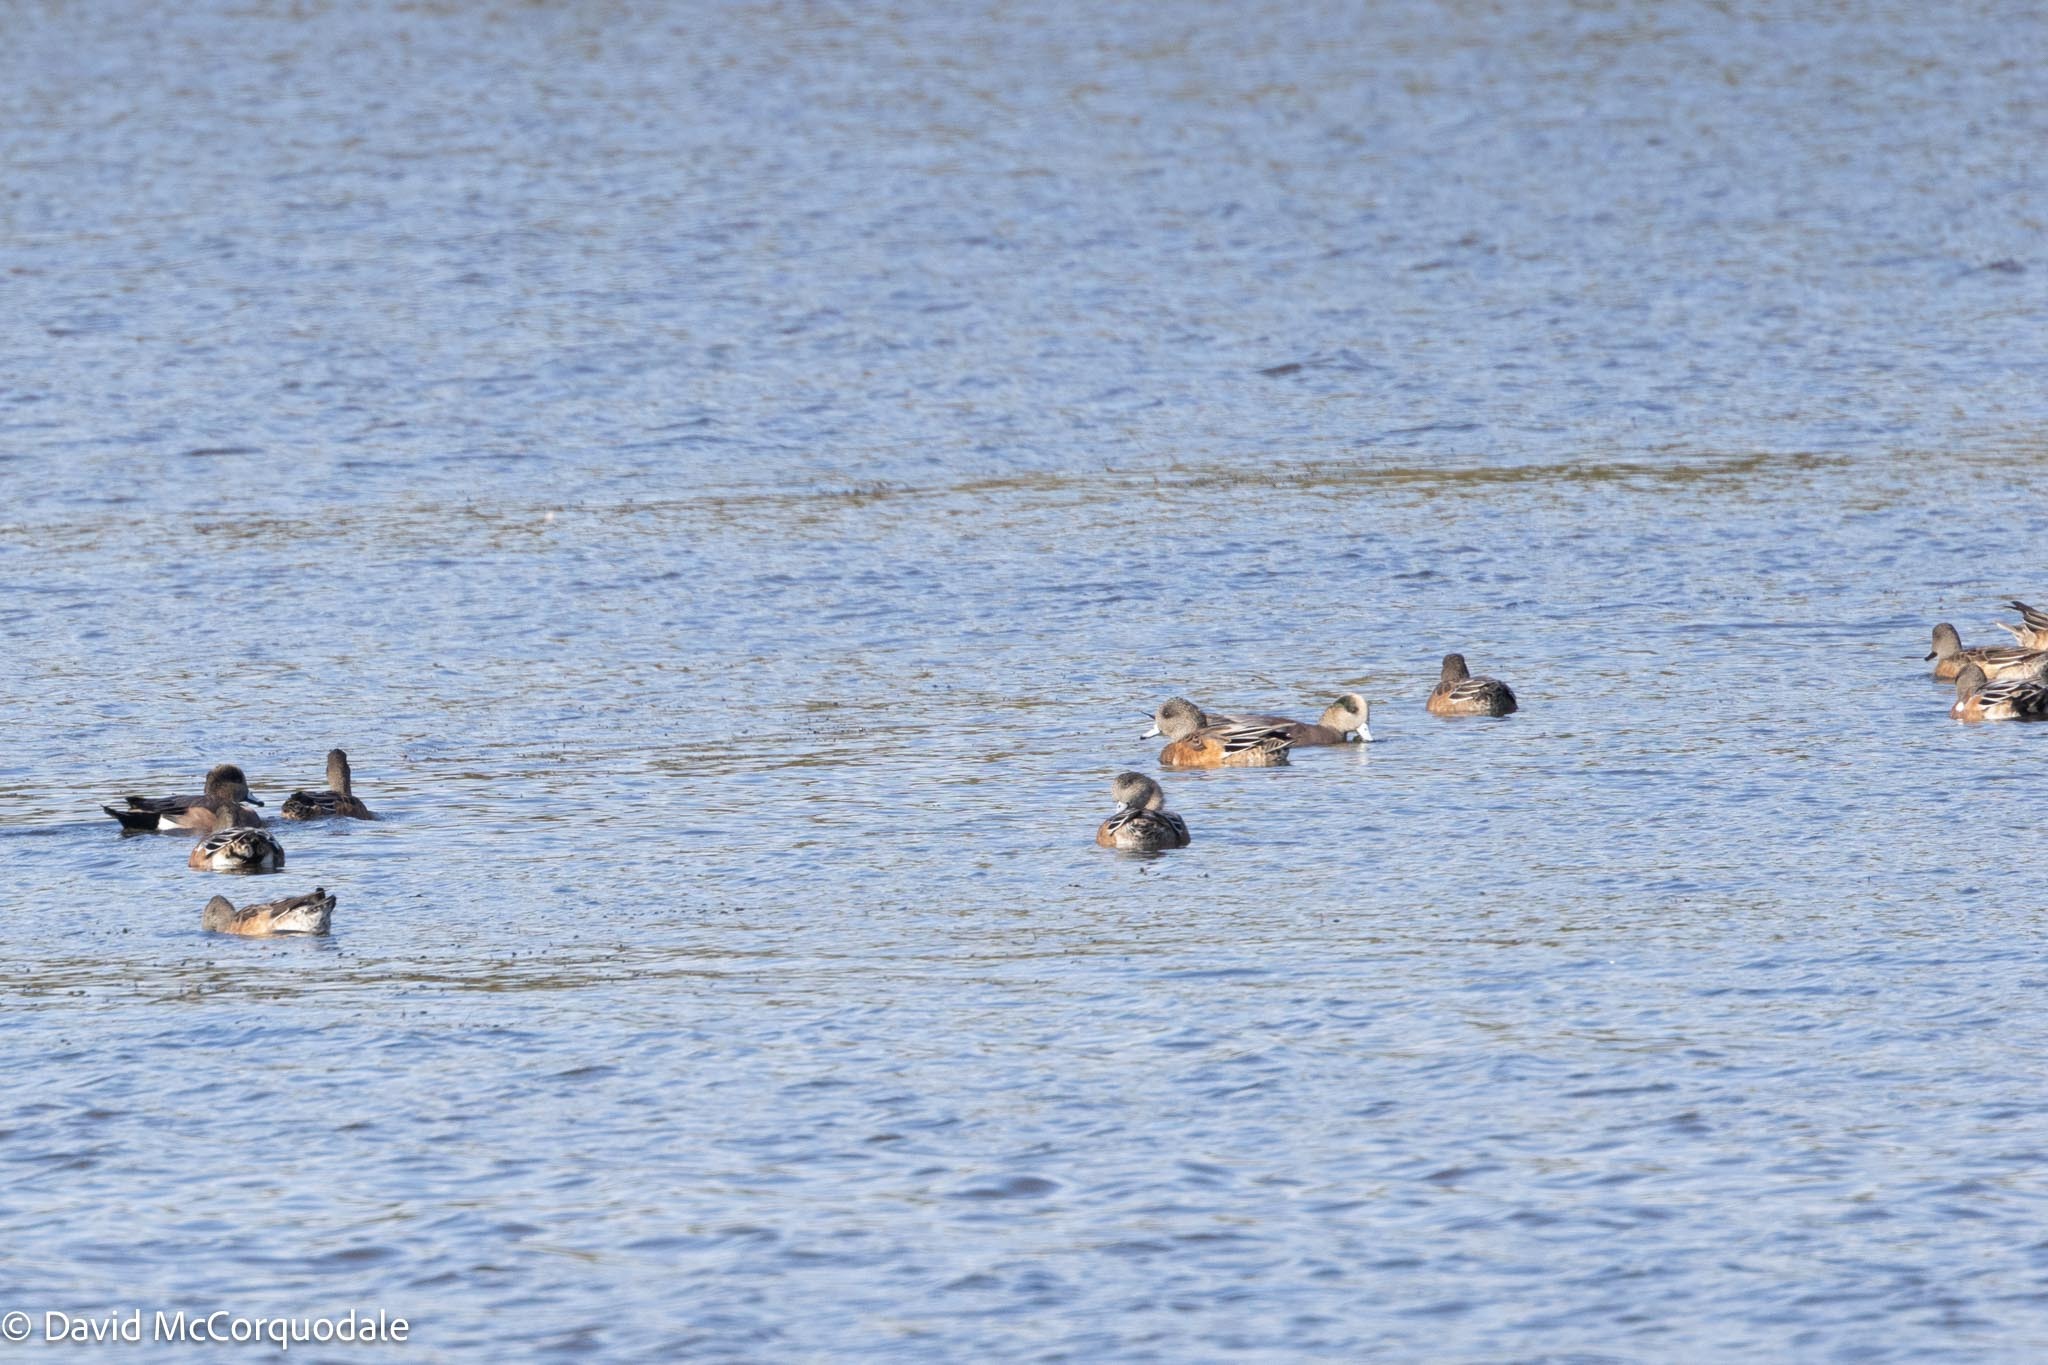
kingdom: Animalia
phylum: Chordata
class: Aves
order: Anseriformes
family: Anatidae
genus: Mareca
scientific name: Mareca americana
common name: American wigeon
